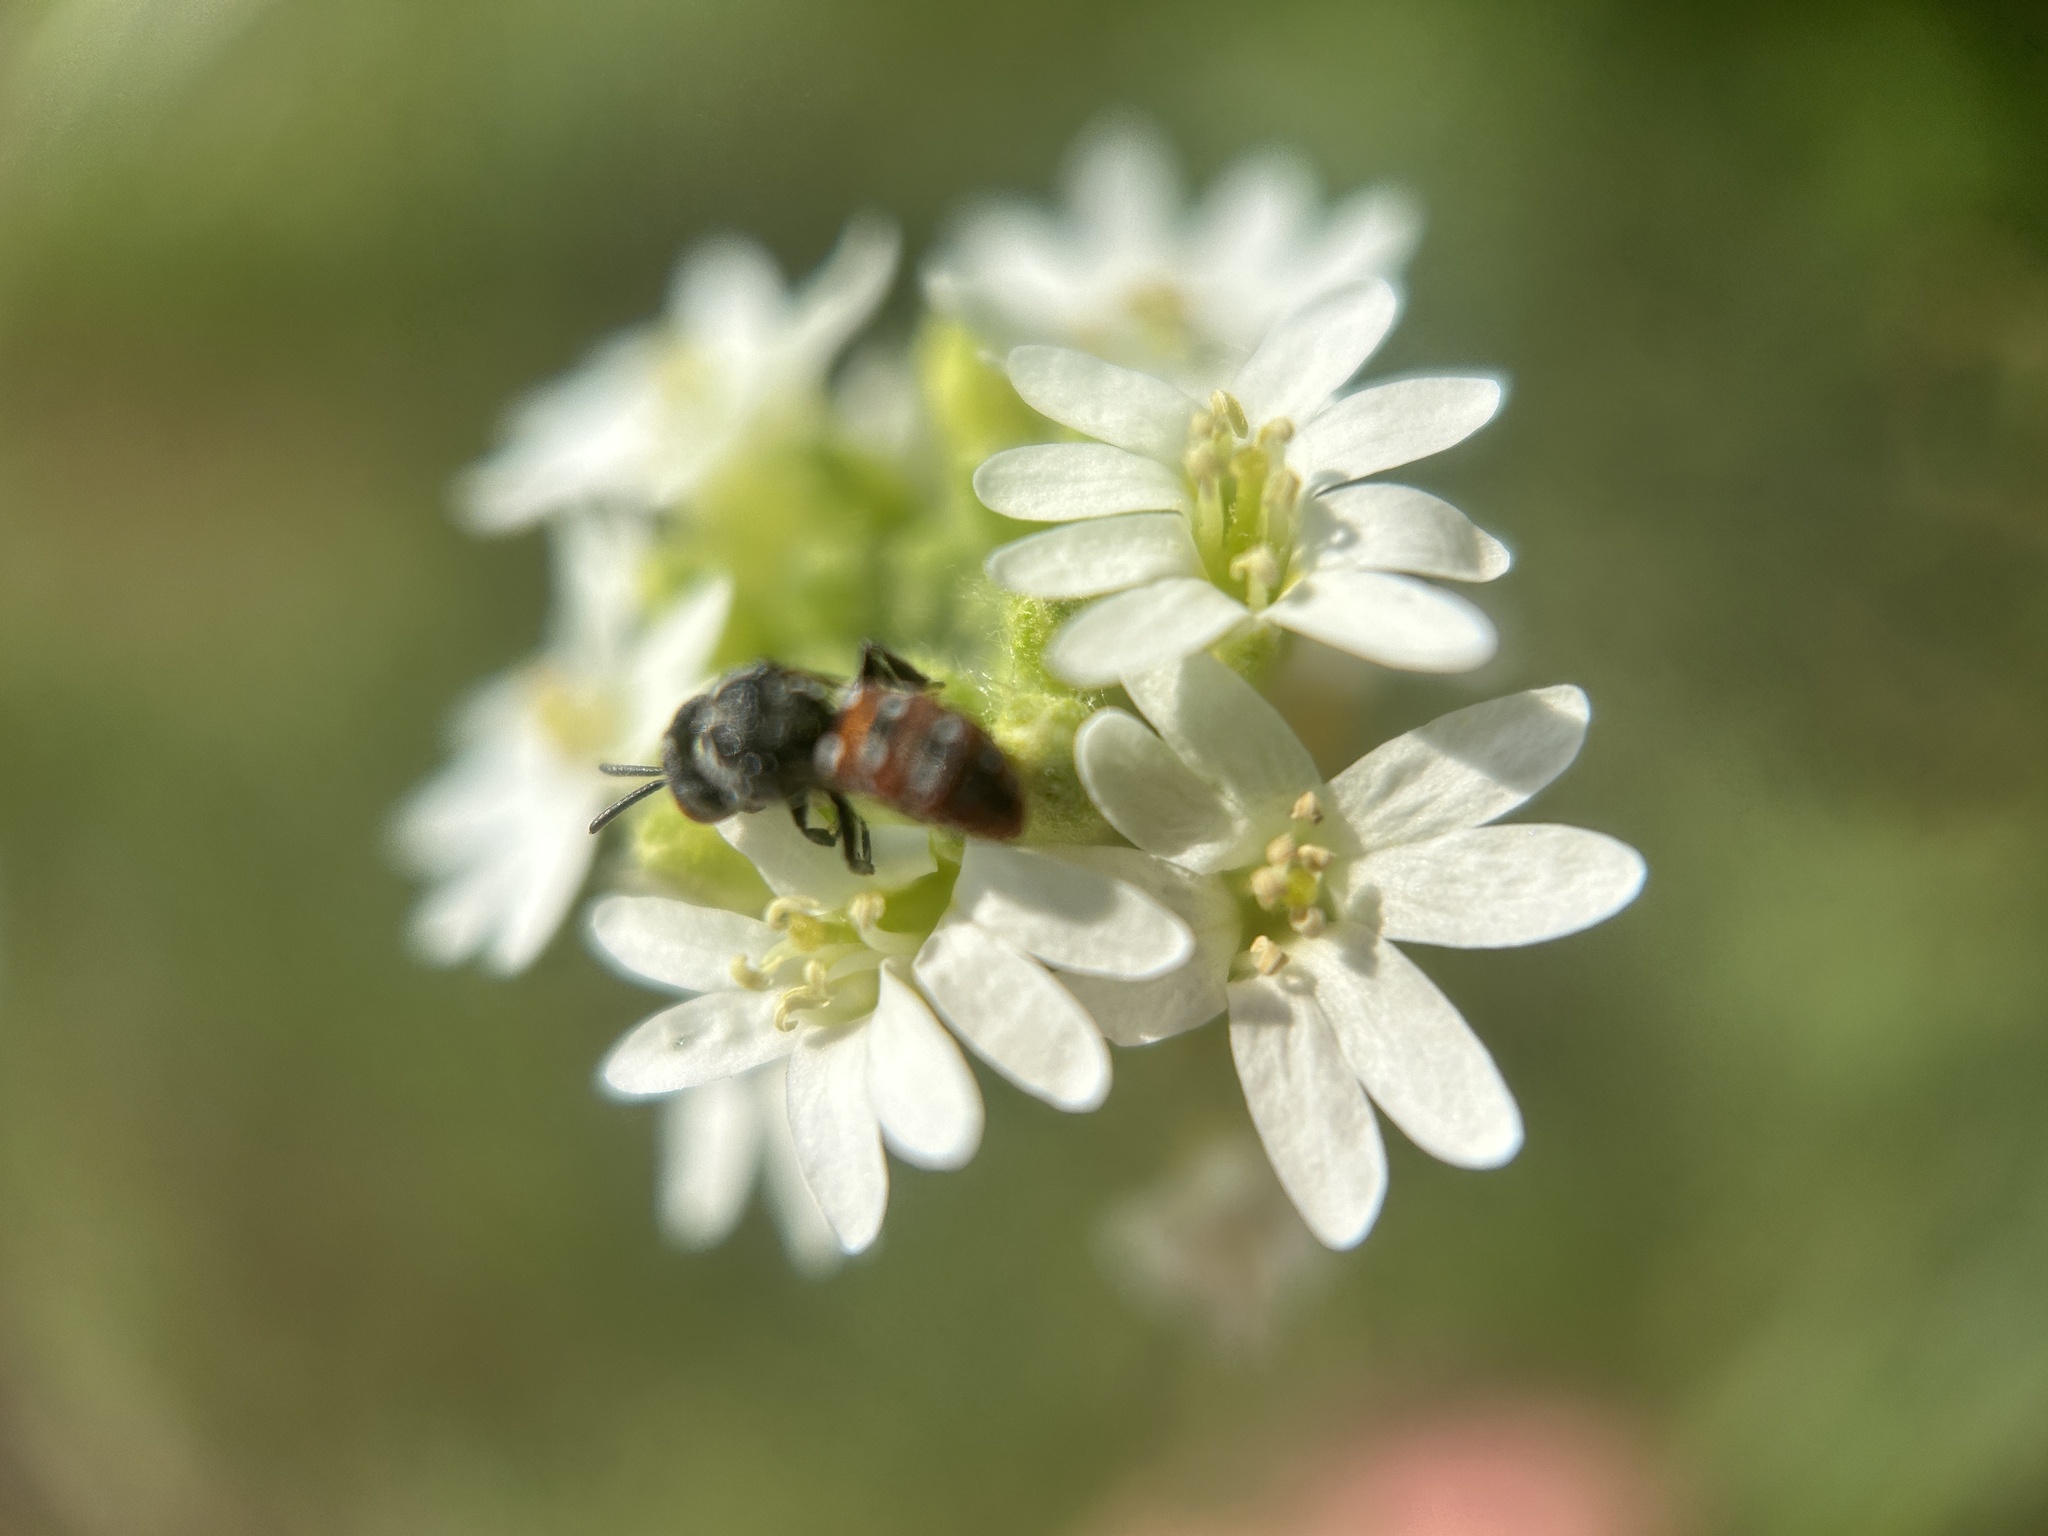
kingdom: Animalia
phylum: Arthropoda
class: Insecta
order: Hymenoptera
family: Apidae
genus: Holcopasites
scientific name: Holcopasites calliopsidis
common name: Calliopsis cuckoo nomad bee
